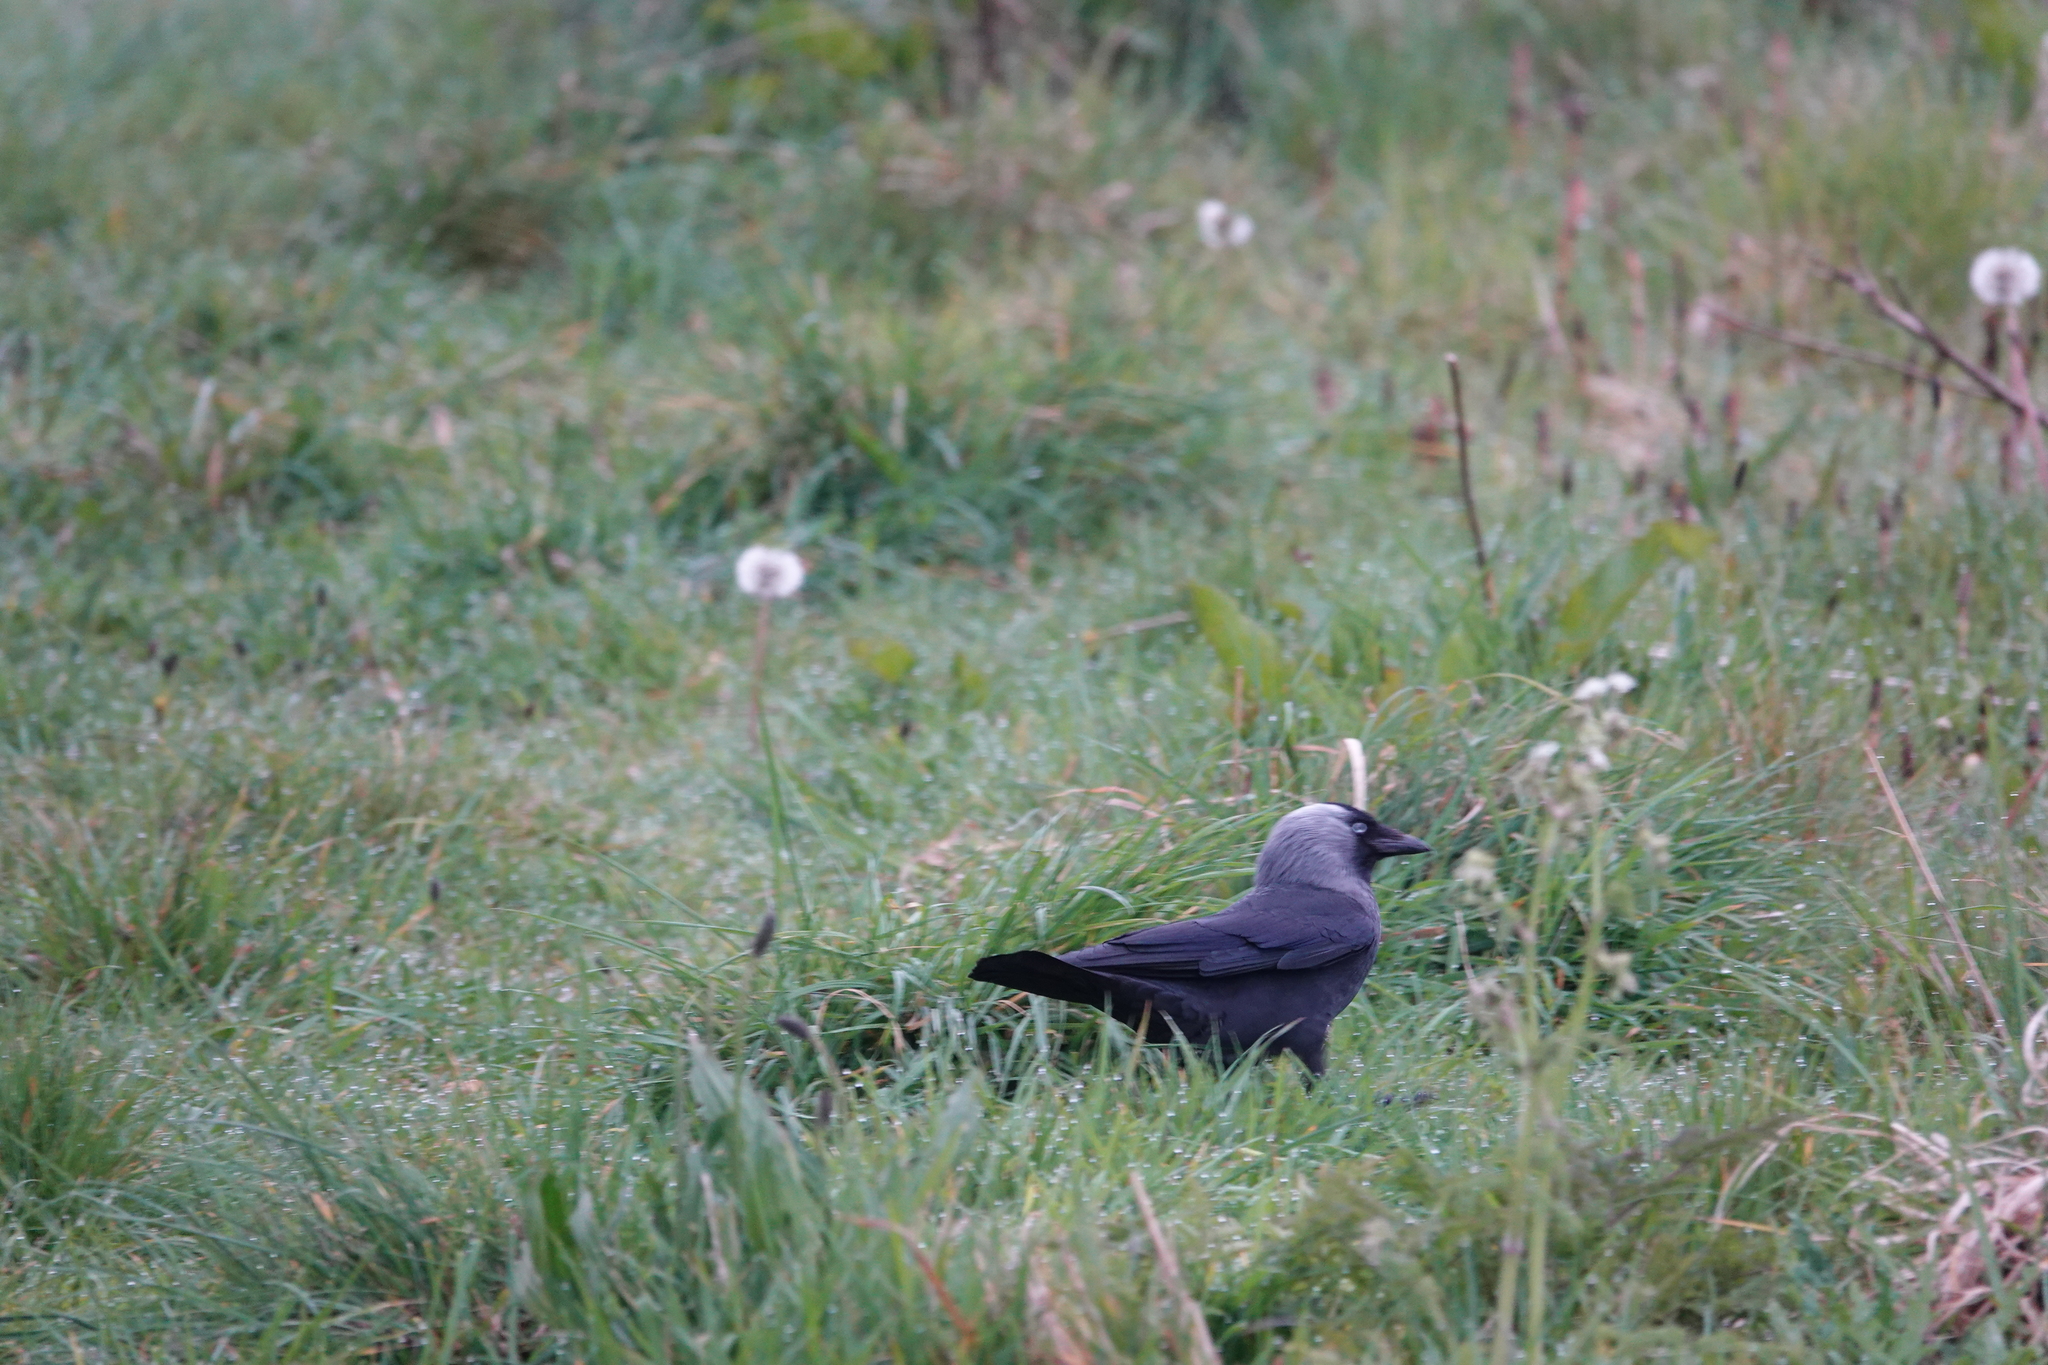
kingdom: Animalia
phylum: Chordata
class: Aves
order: Passeriformes
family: Corvidae
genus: Coloeus
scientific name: Coloeus monedula
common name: Western jackdaw
